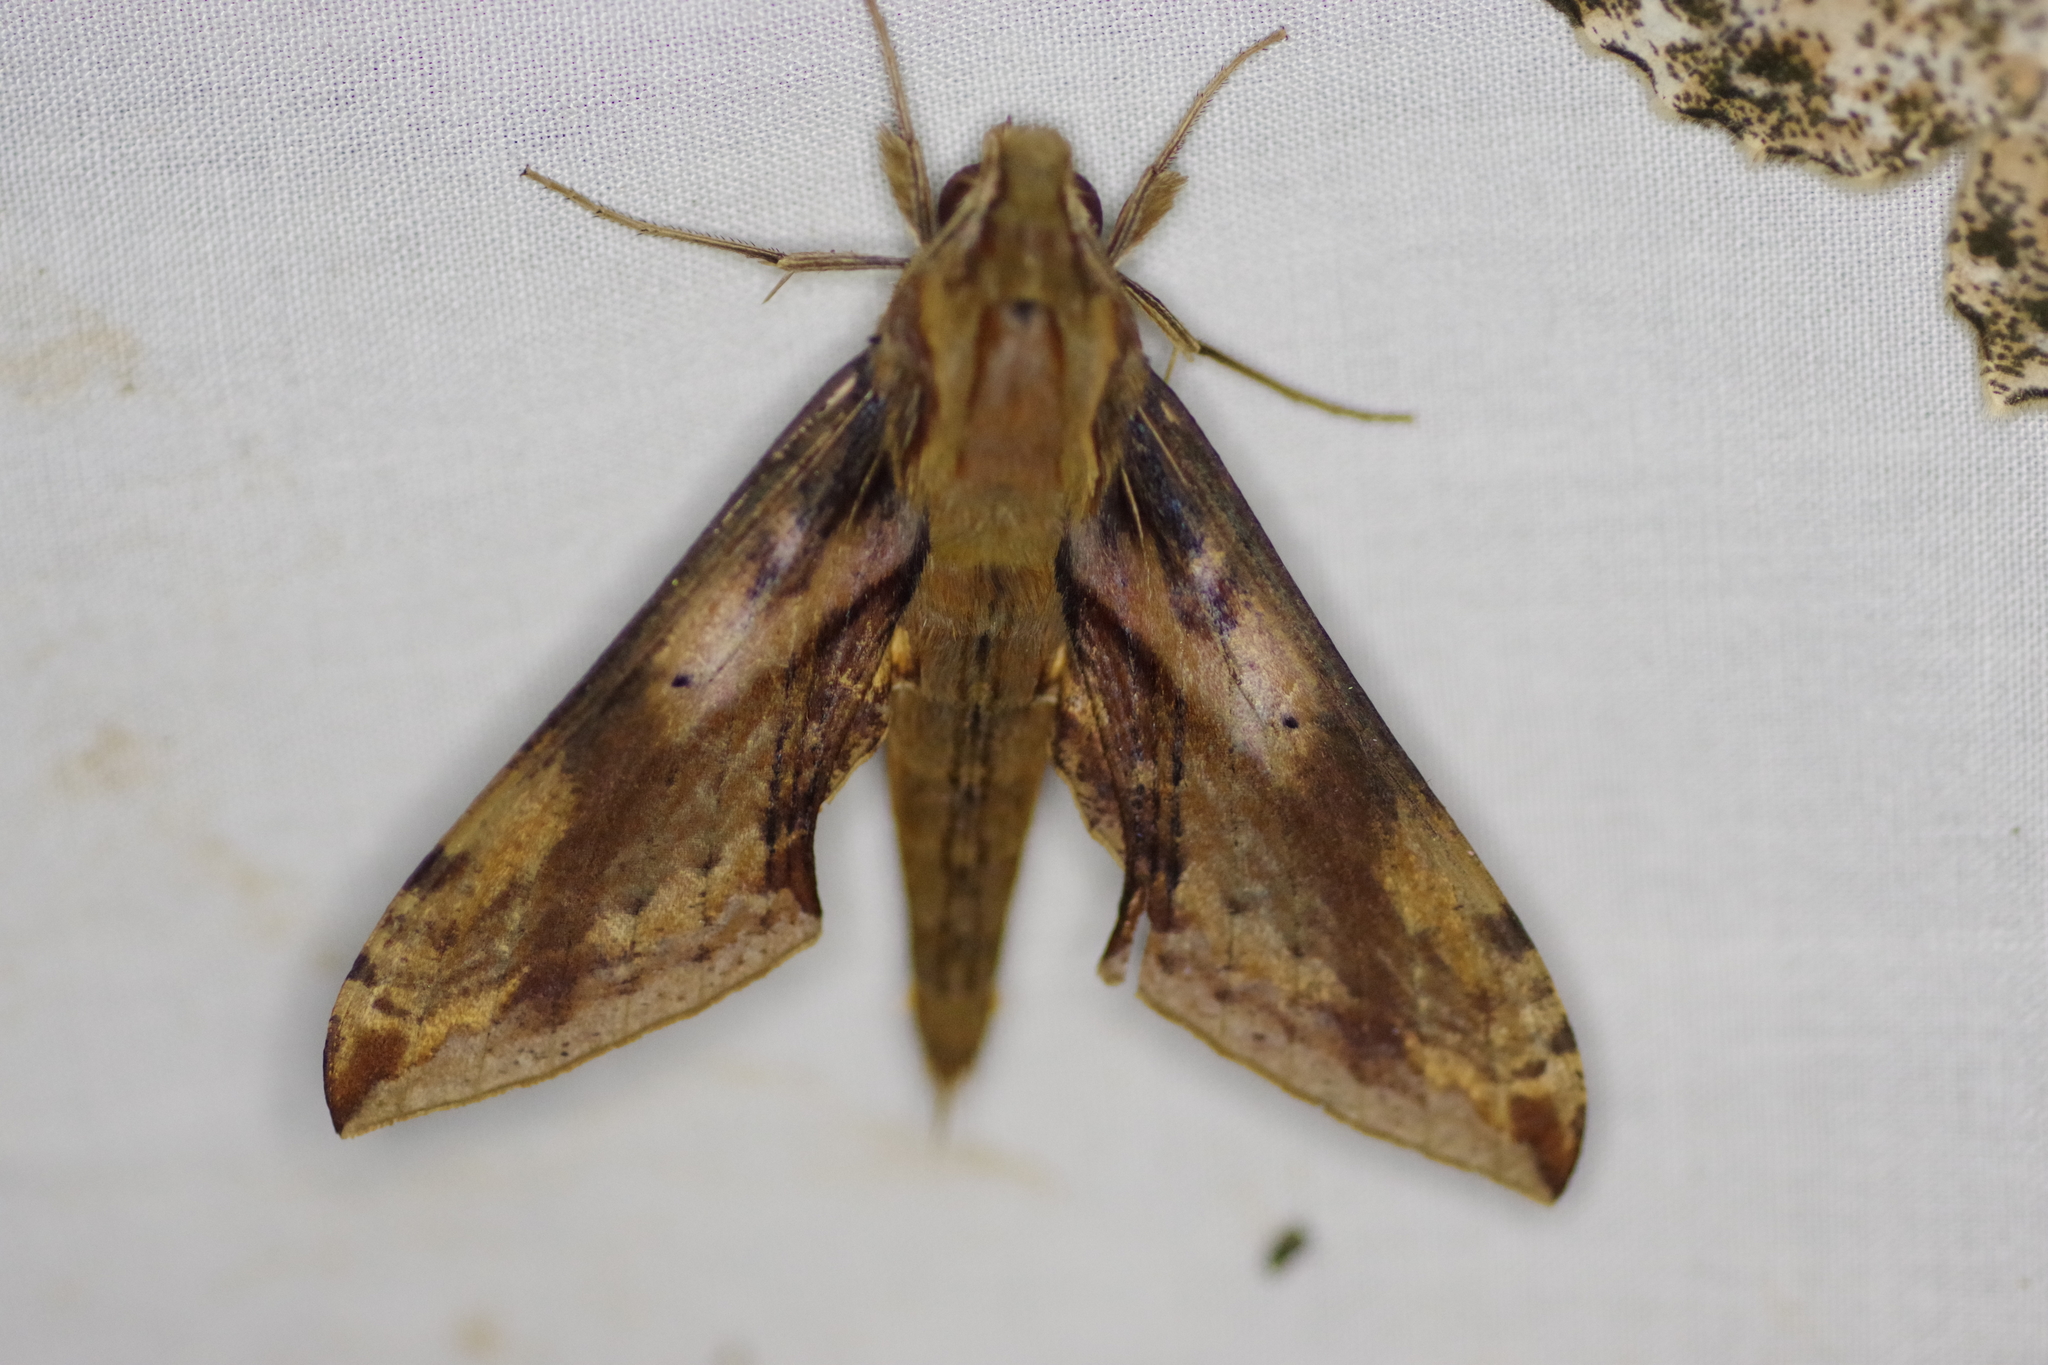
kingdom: Animalia
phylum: Arthropoda
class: Insecta
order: Lepidoptera
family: Sphingidae
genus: Xylophanes
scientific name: Xylophanes rhodina
